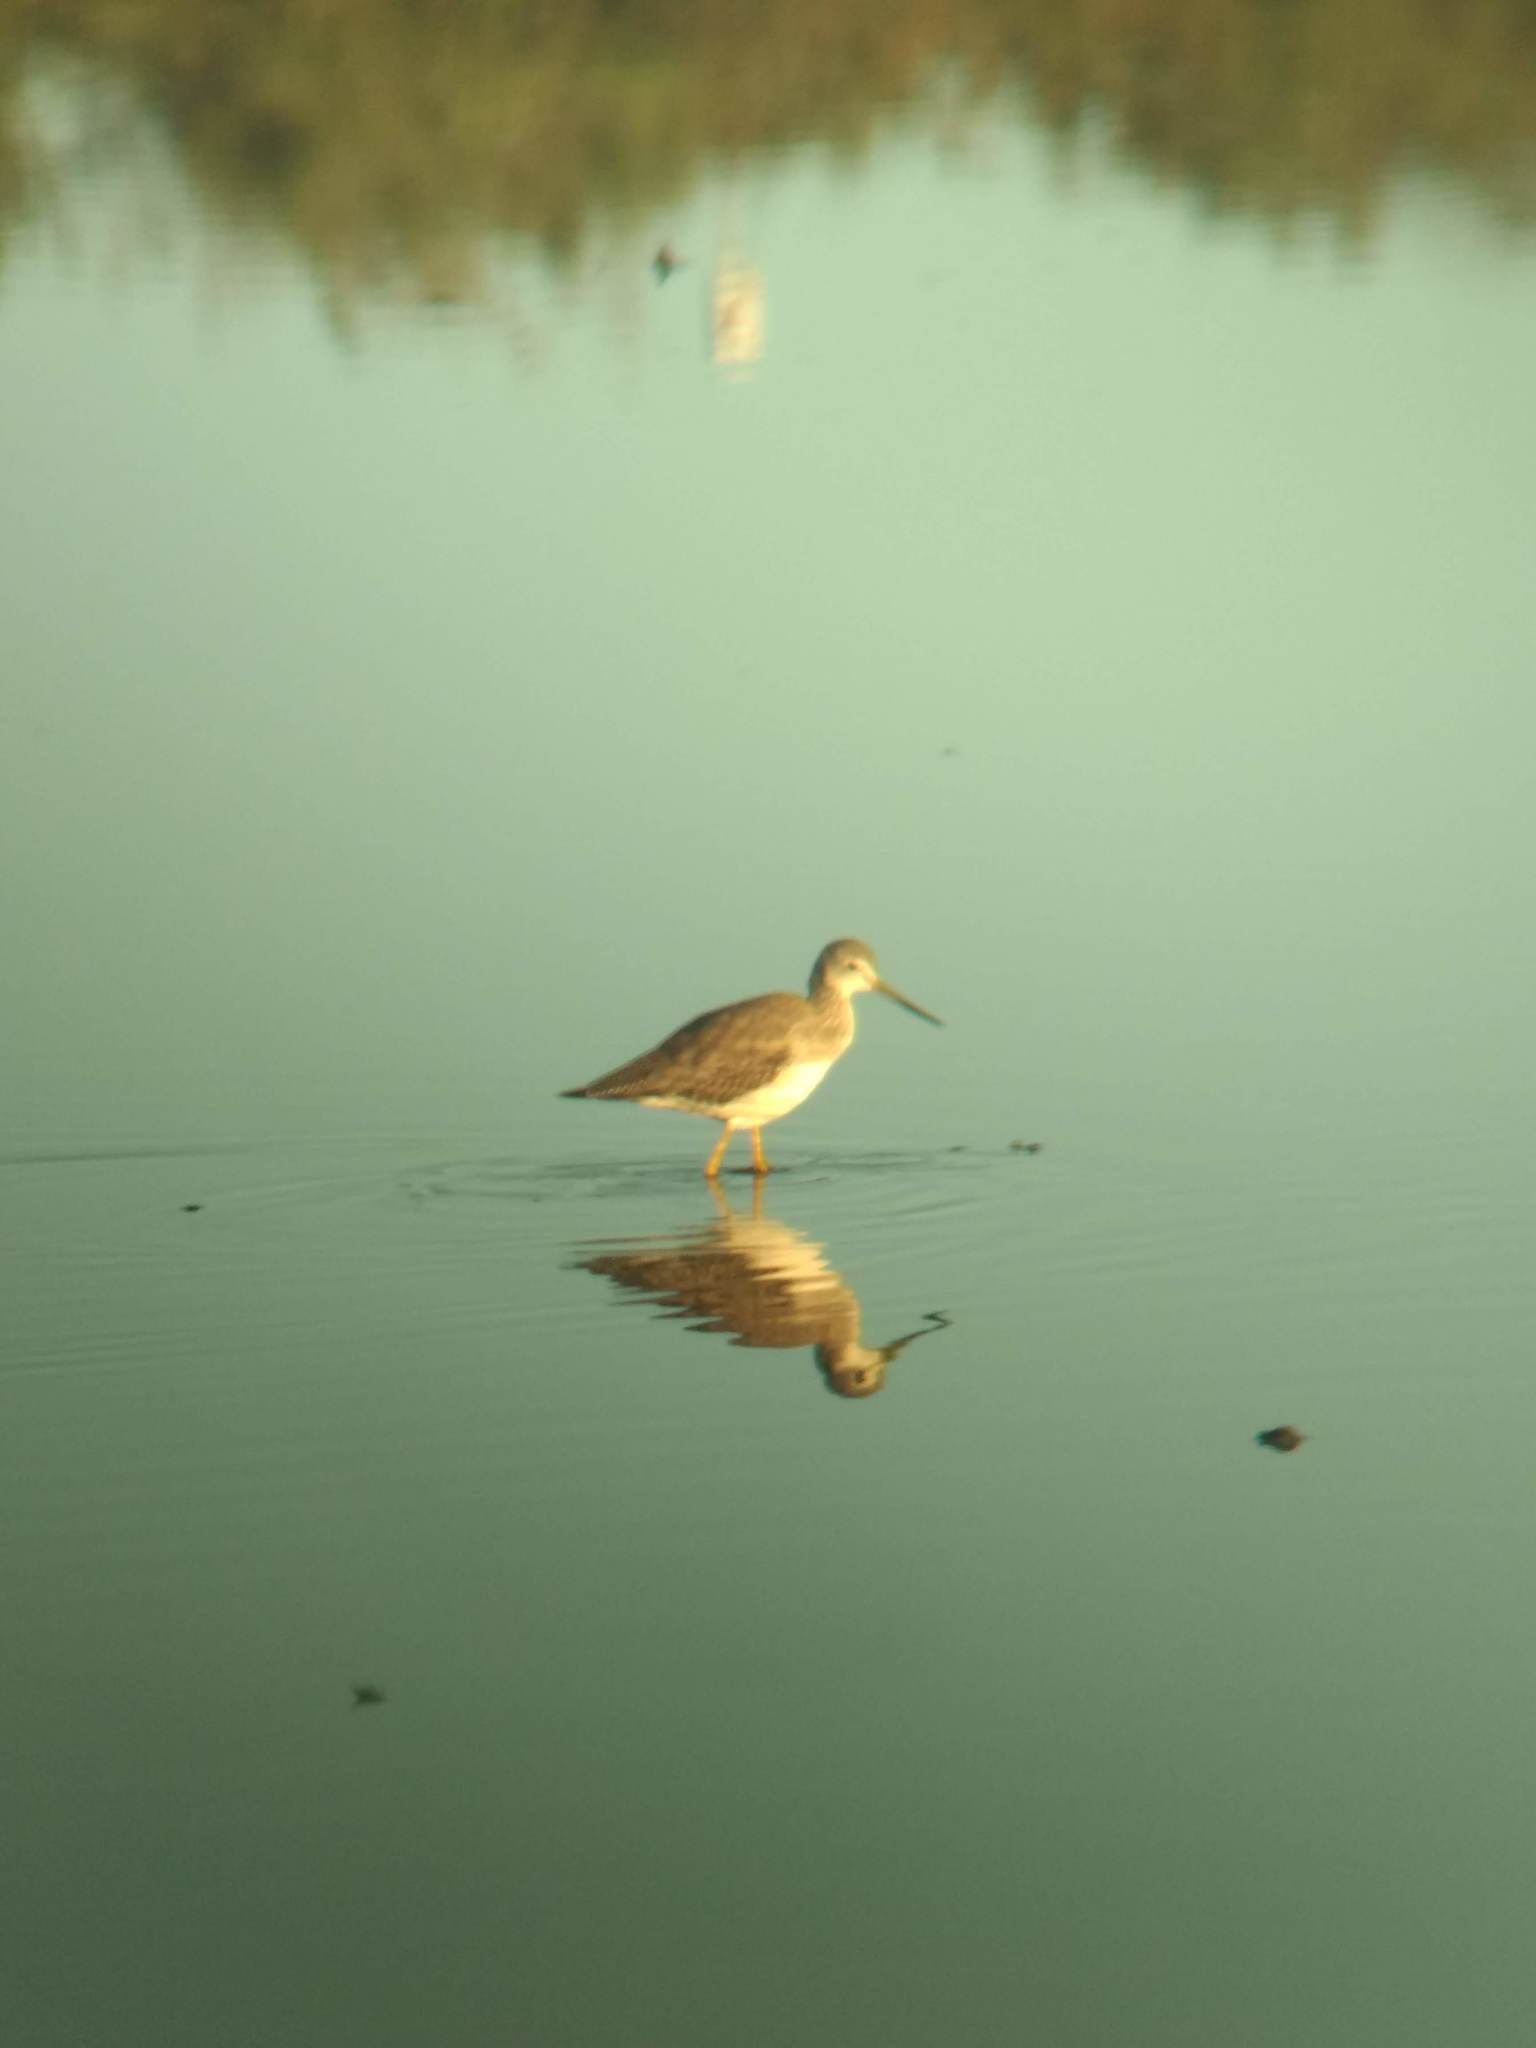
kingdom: Animalia
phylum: Chordata
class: Aves
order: Charadriiformes
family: Scolopacidae
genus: Tringa
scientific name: Tringa melanoleuca
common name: Greater yellowlegs
